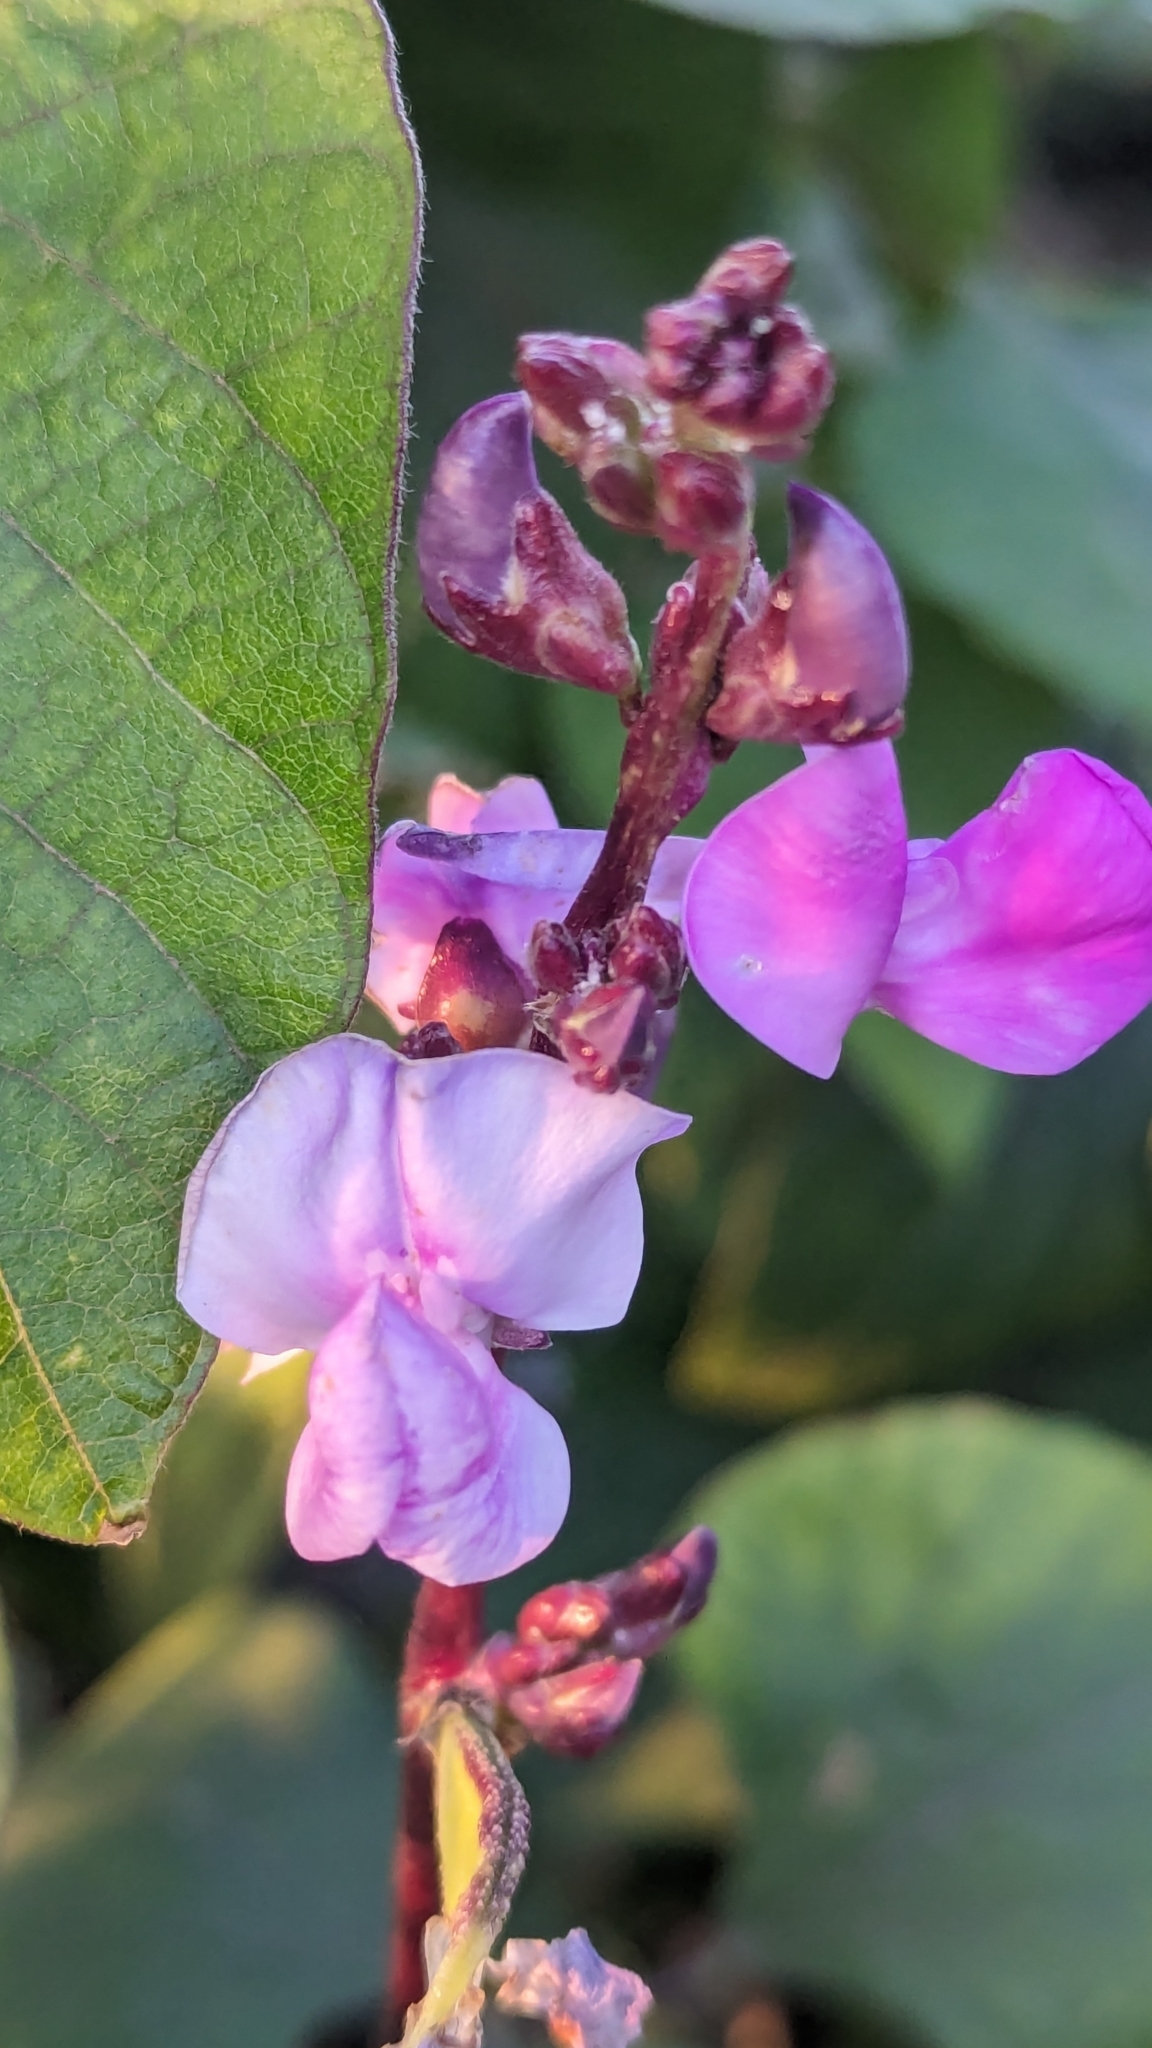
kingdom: Plantae
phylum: Tracheophyta
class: Magnoliopsida
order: Fabales
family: Fabaceae
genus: Lablab
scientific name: Lablab purpureus
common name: Lablab-bean
